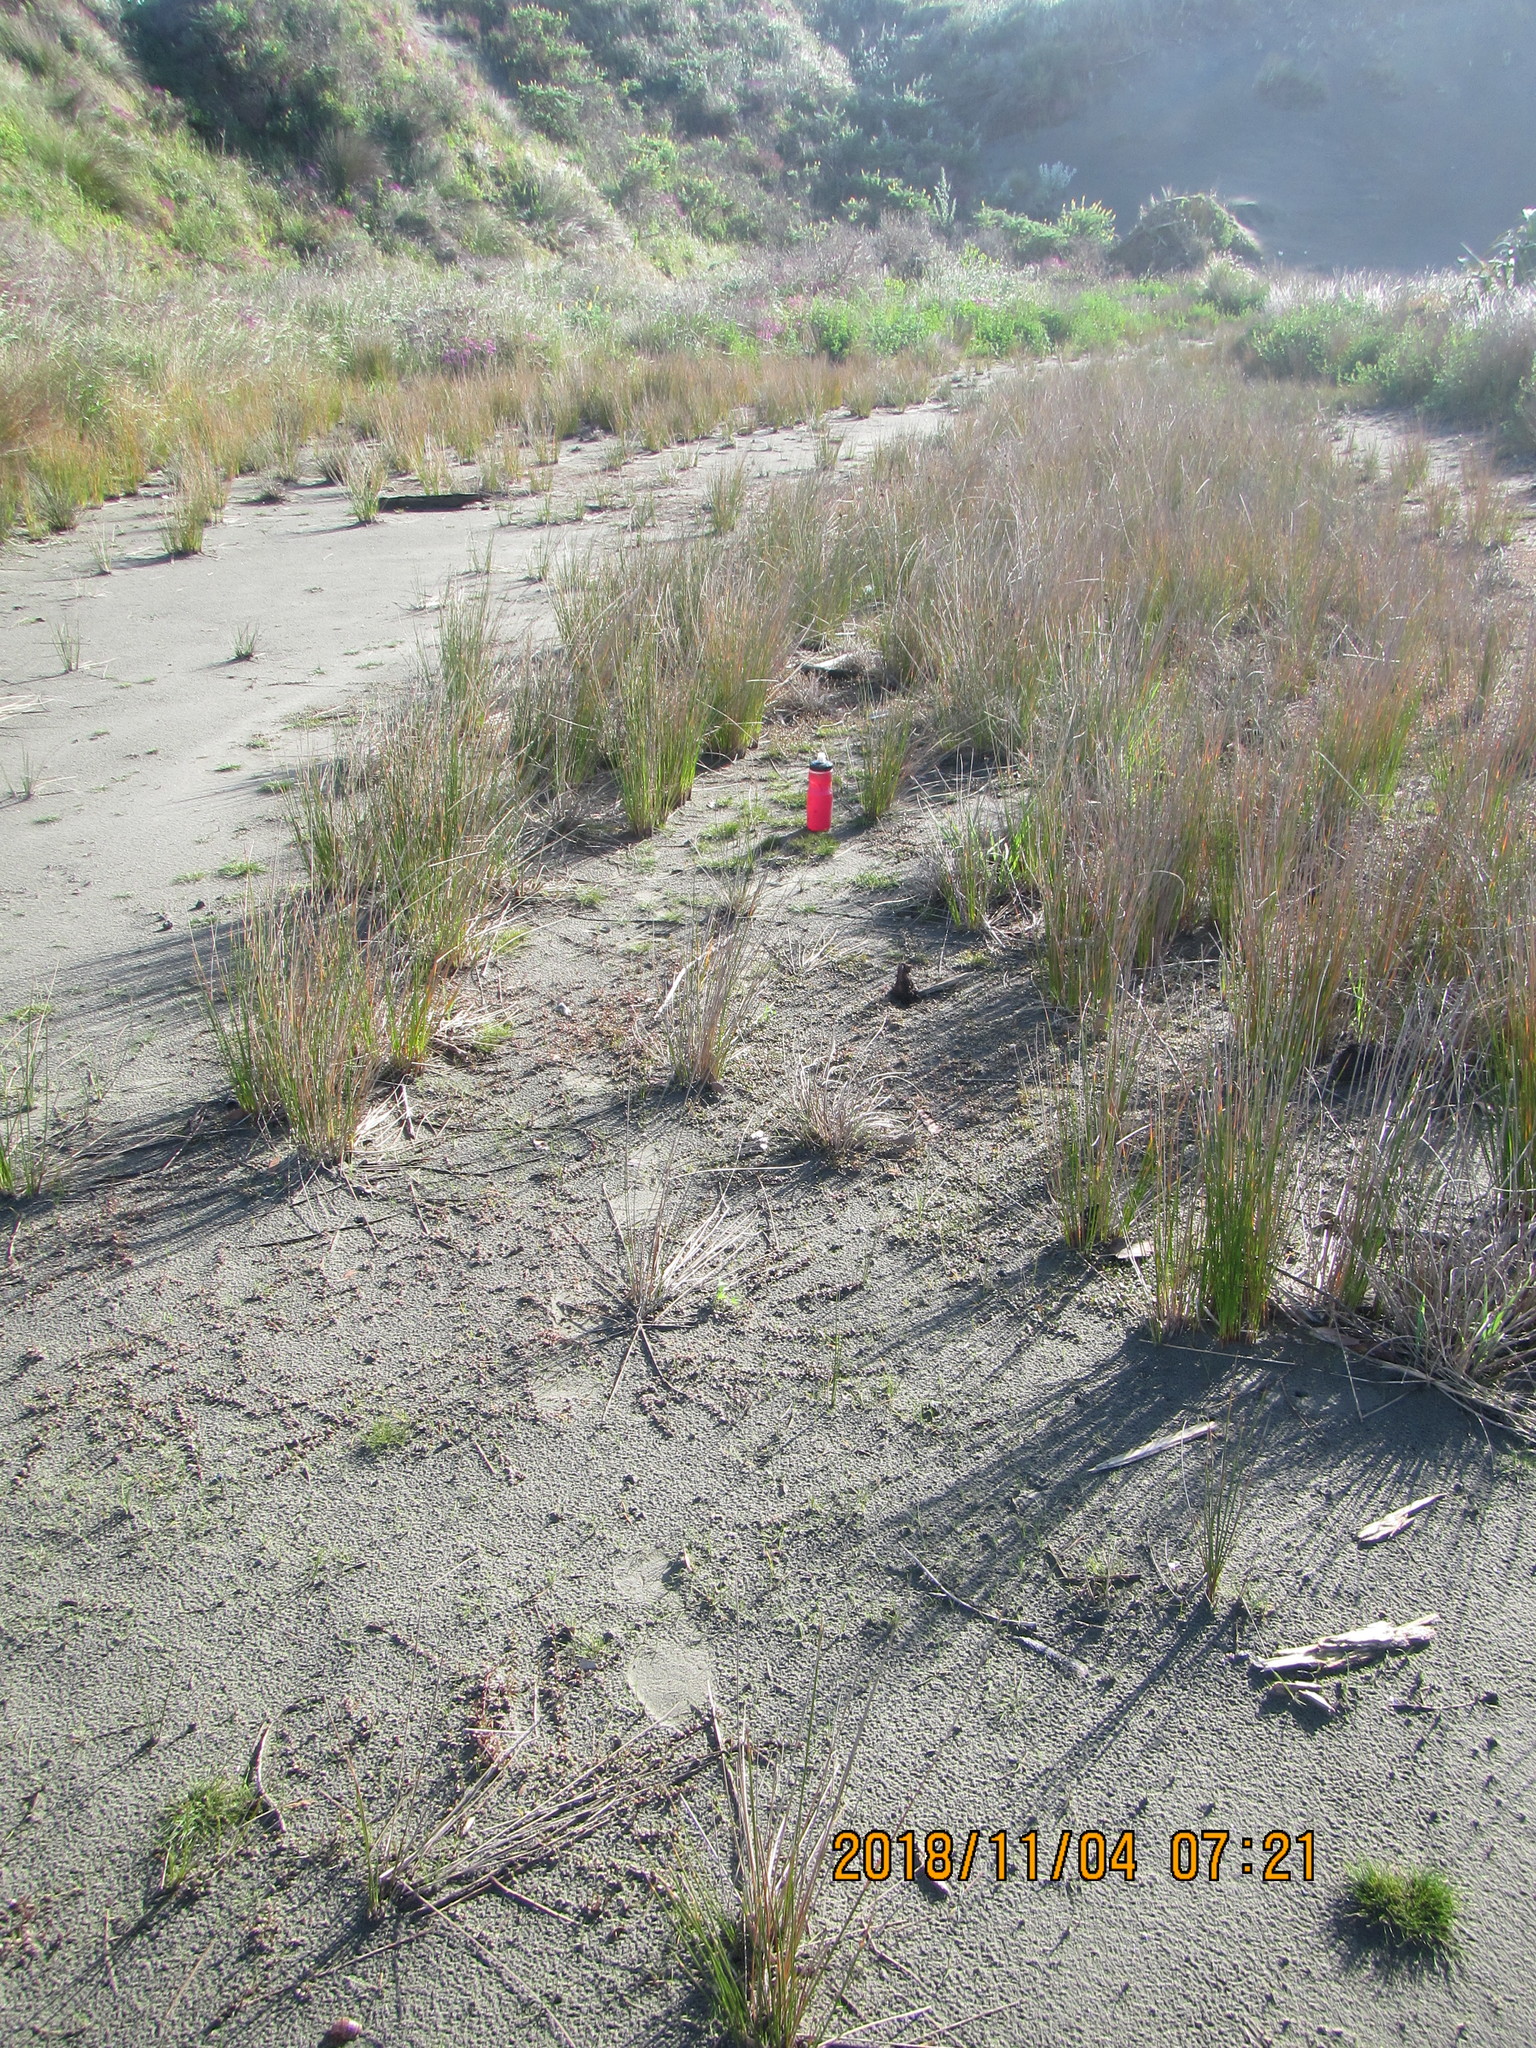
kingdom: Plantae
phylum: Tracheophyta
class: Magnoliopsida
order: Caryophyllales
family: Amaranthaceae
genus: Salicornia
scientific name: Salicornia quinqueflora
